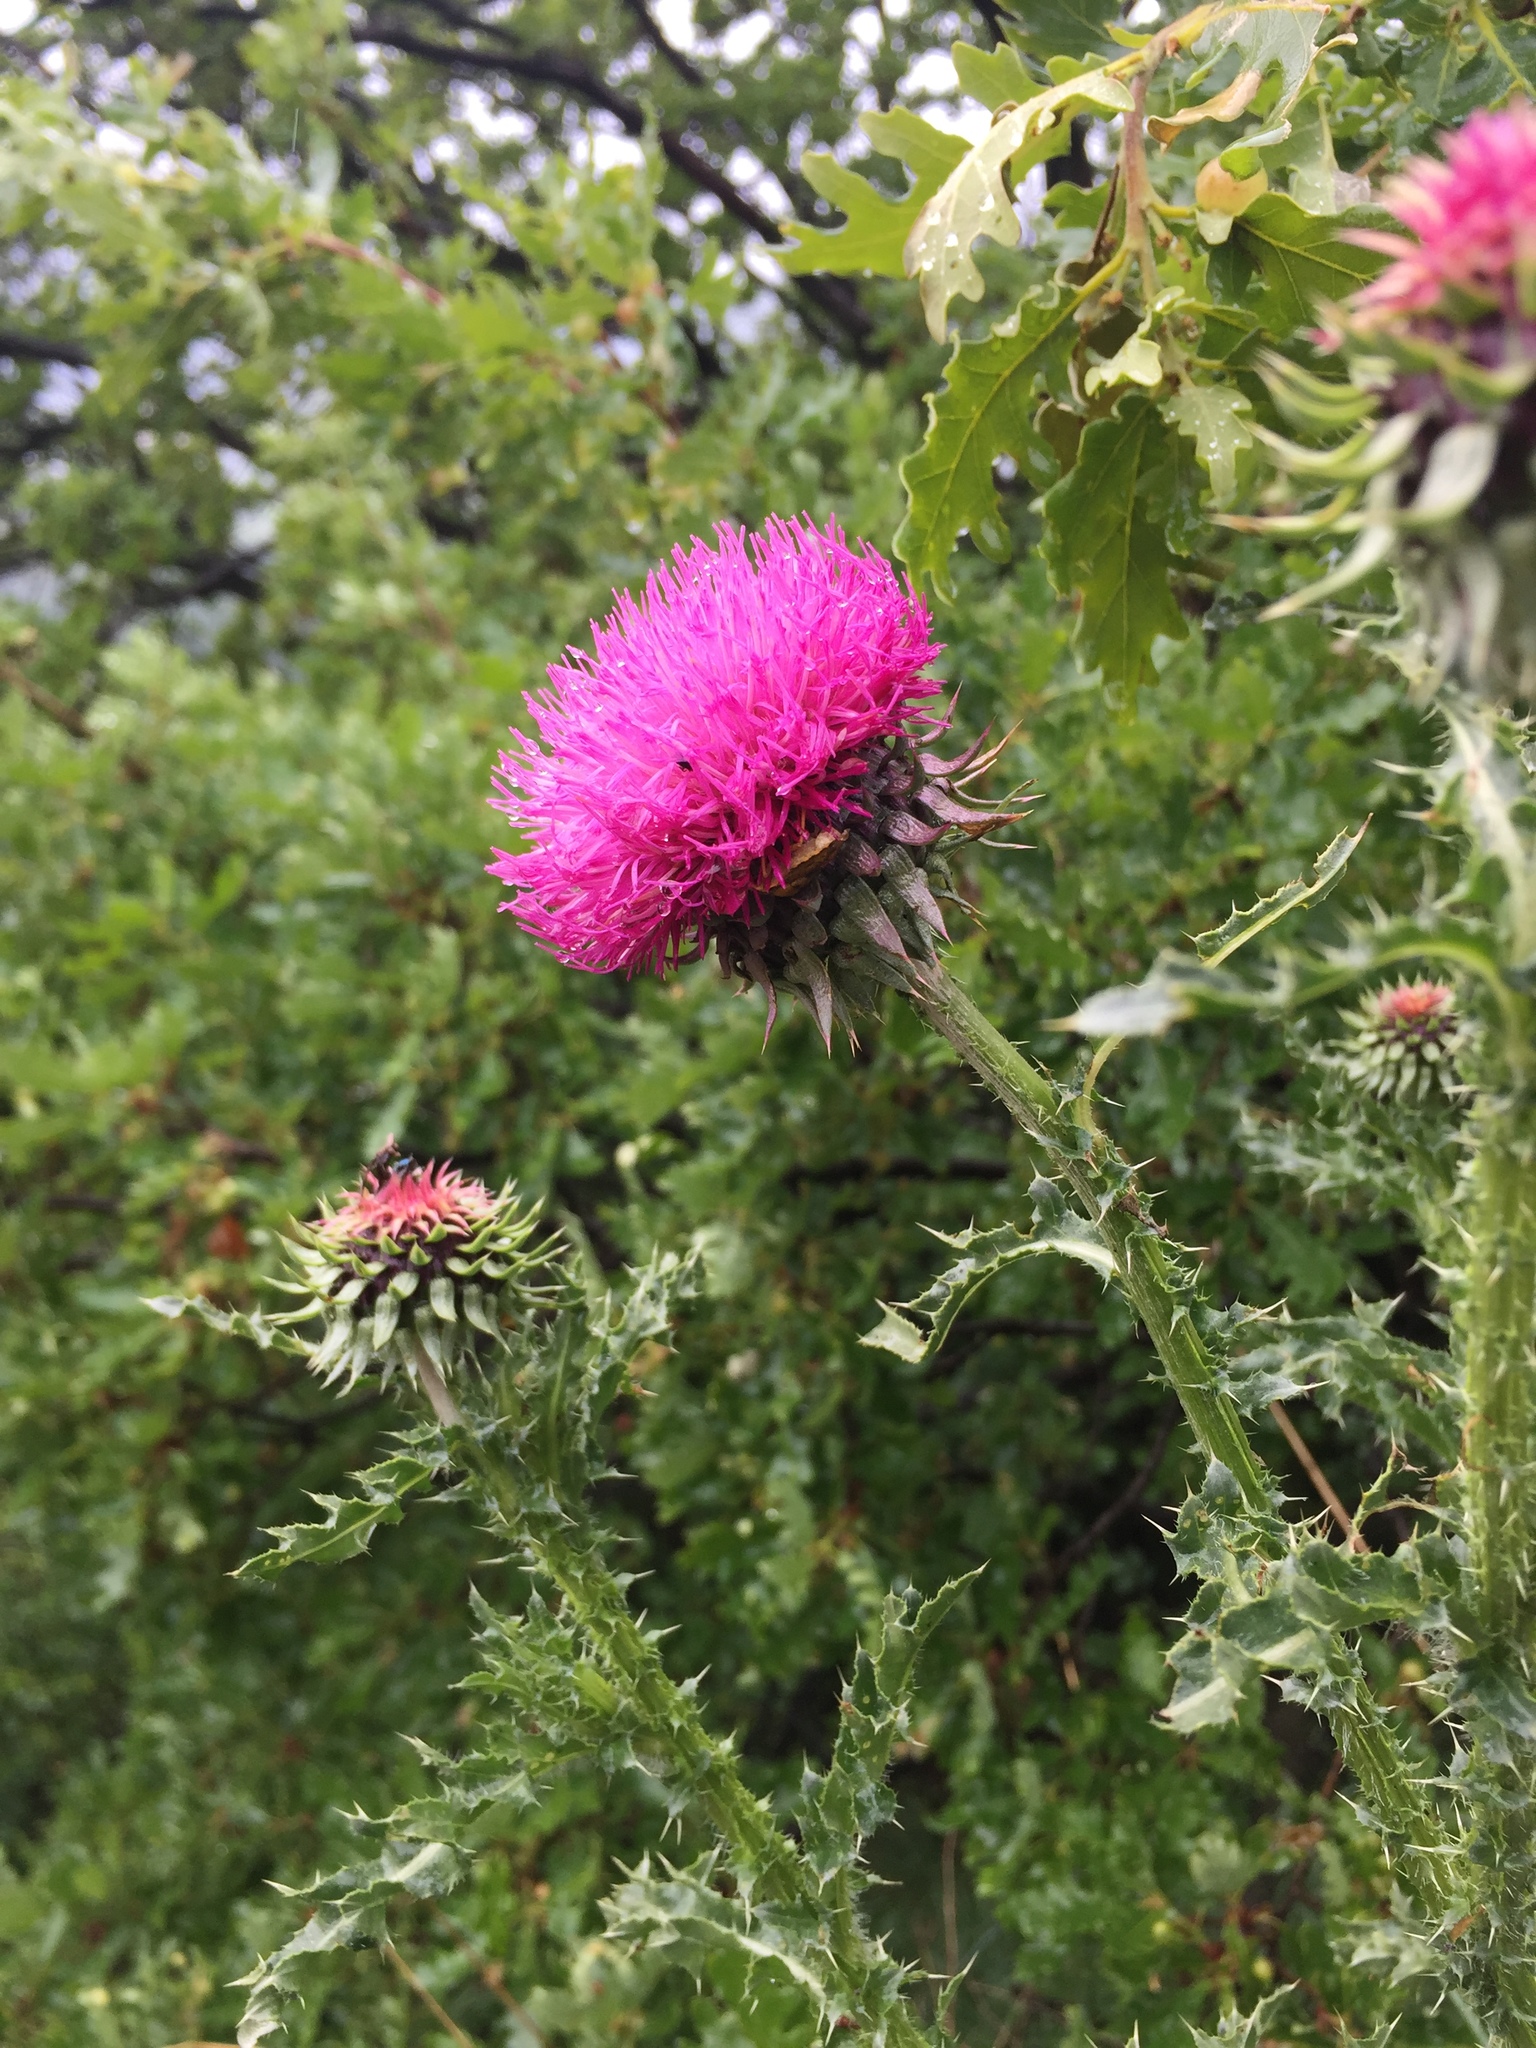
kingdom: Plantae
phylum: Tracheophyta
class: Magnoliopsida
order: Asterales
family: Asteraceae
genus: Carduus
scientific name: Carduus nutans
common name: Musk thistle
